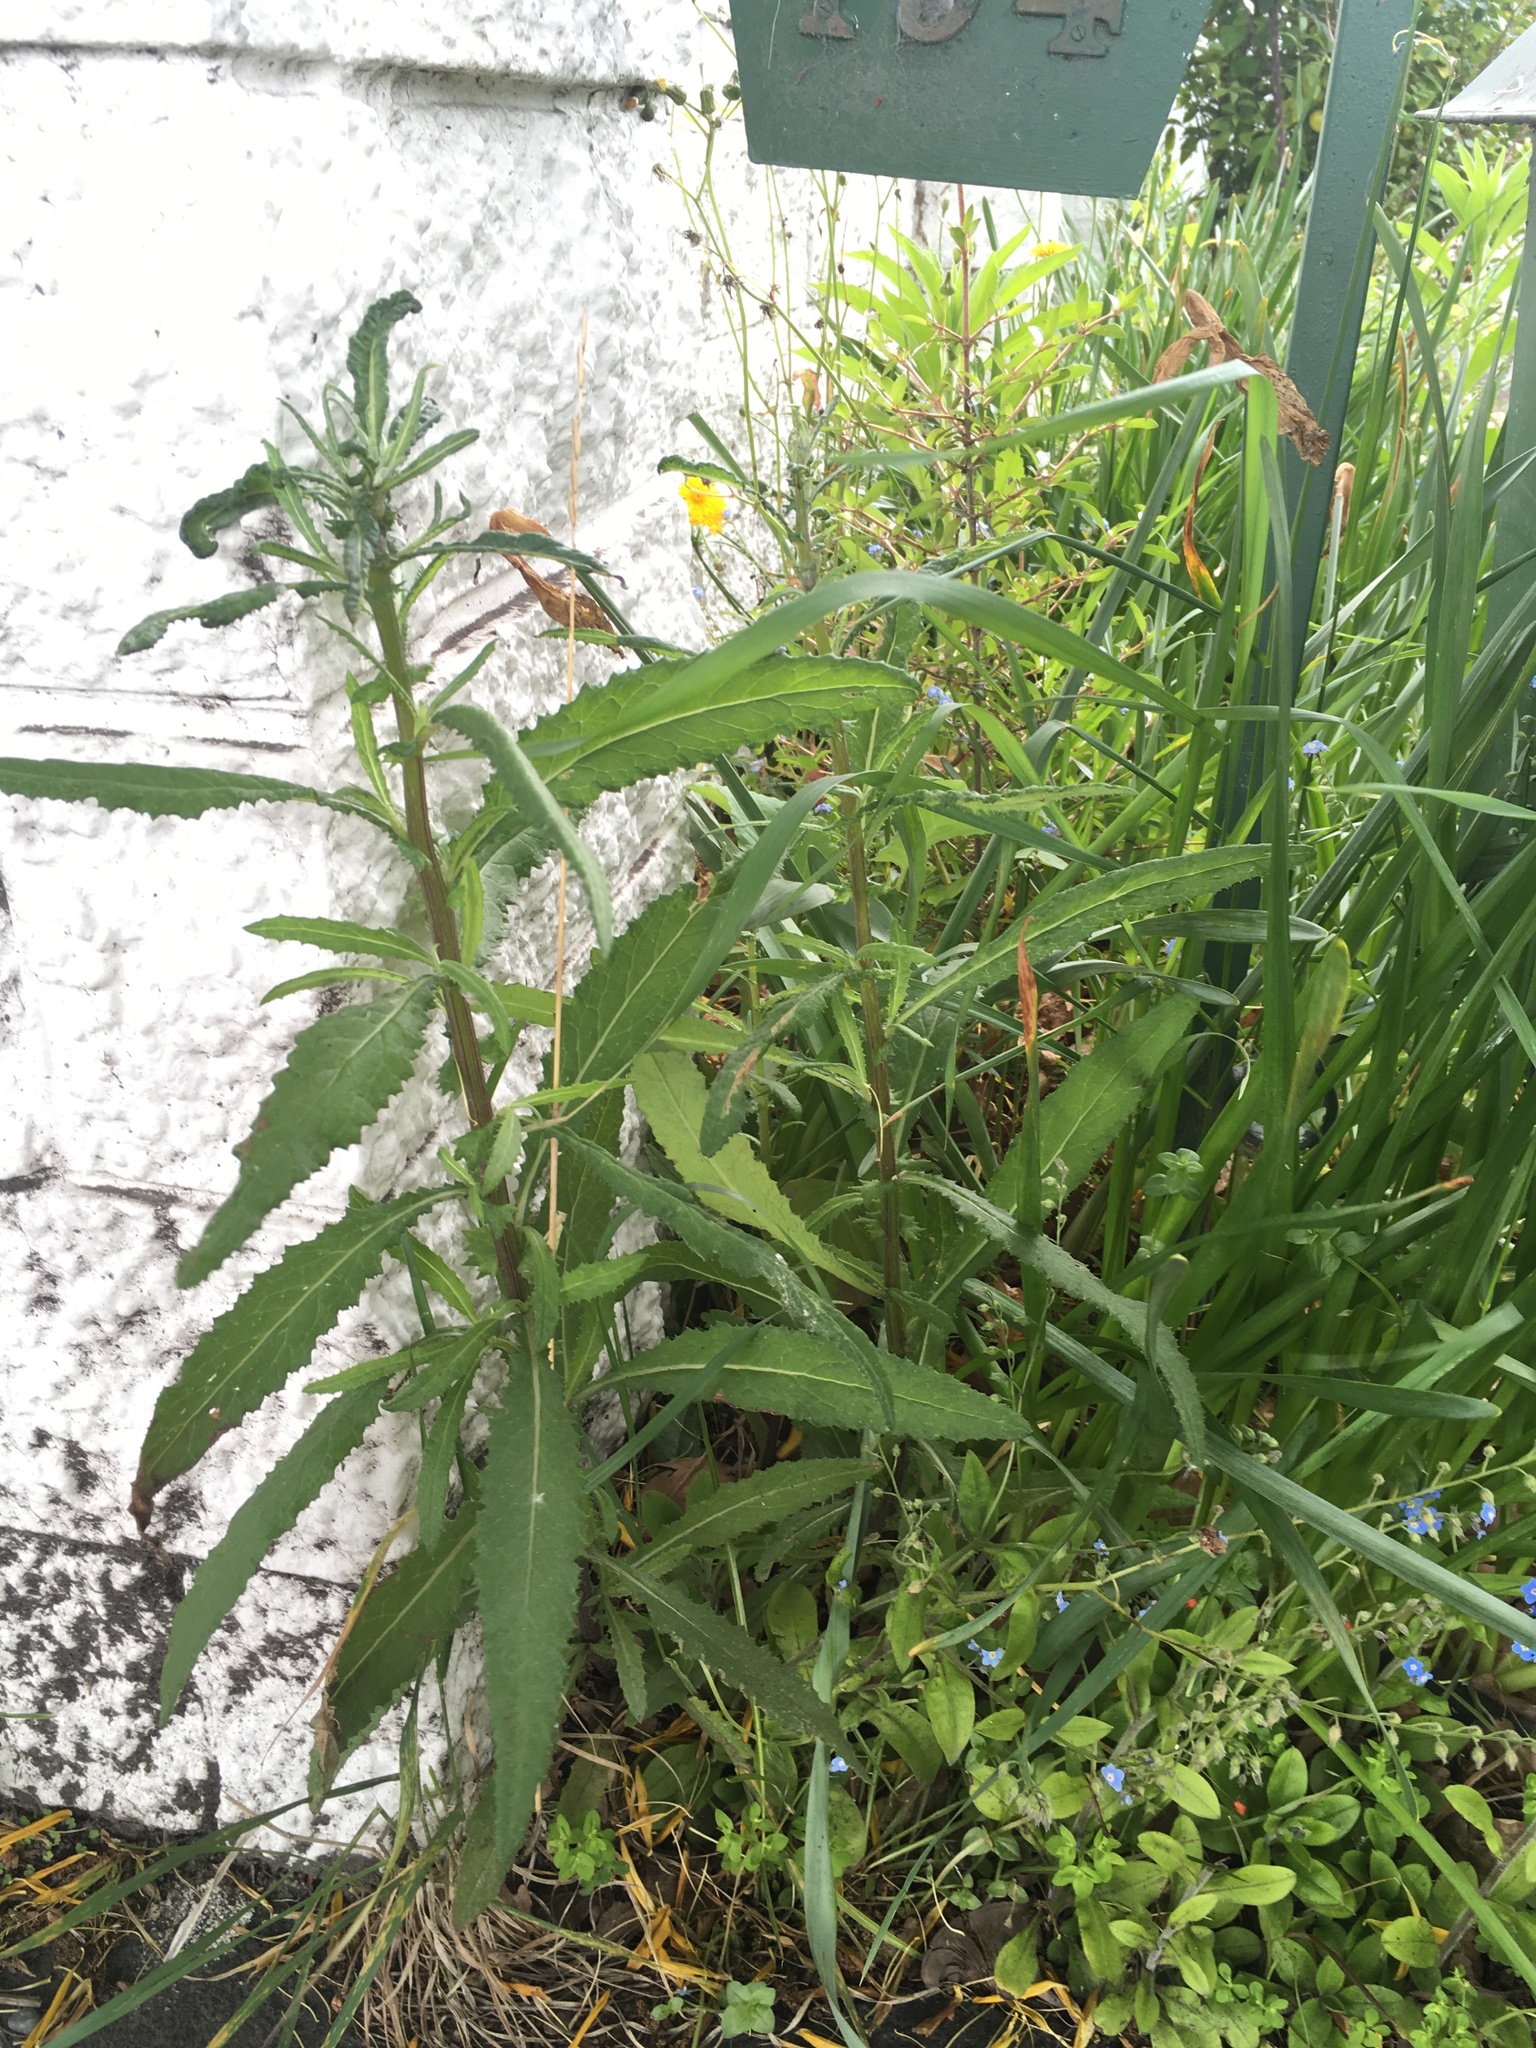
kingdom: Plantae
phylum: Tracheophyta
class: Magnoliopsida
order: Asterales
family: Asteraceae
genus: Senecio
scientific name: Senecio minimus
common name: Toothed fireweed
